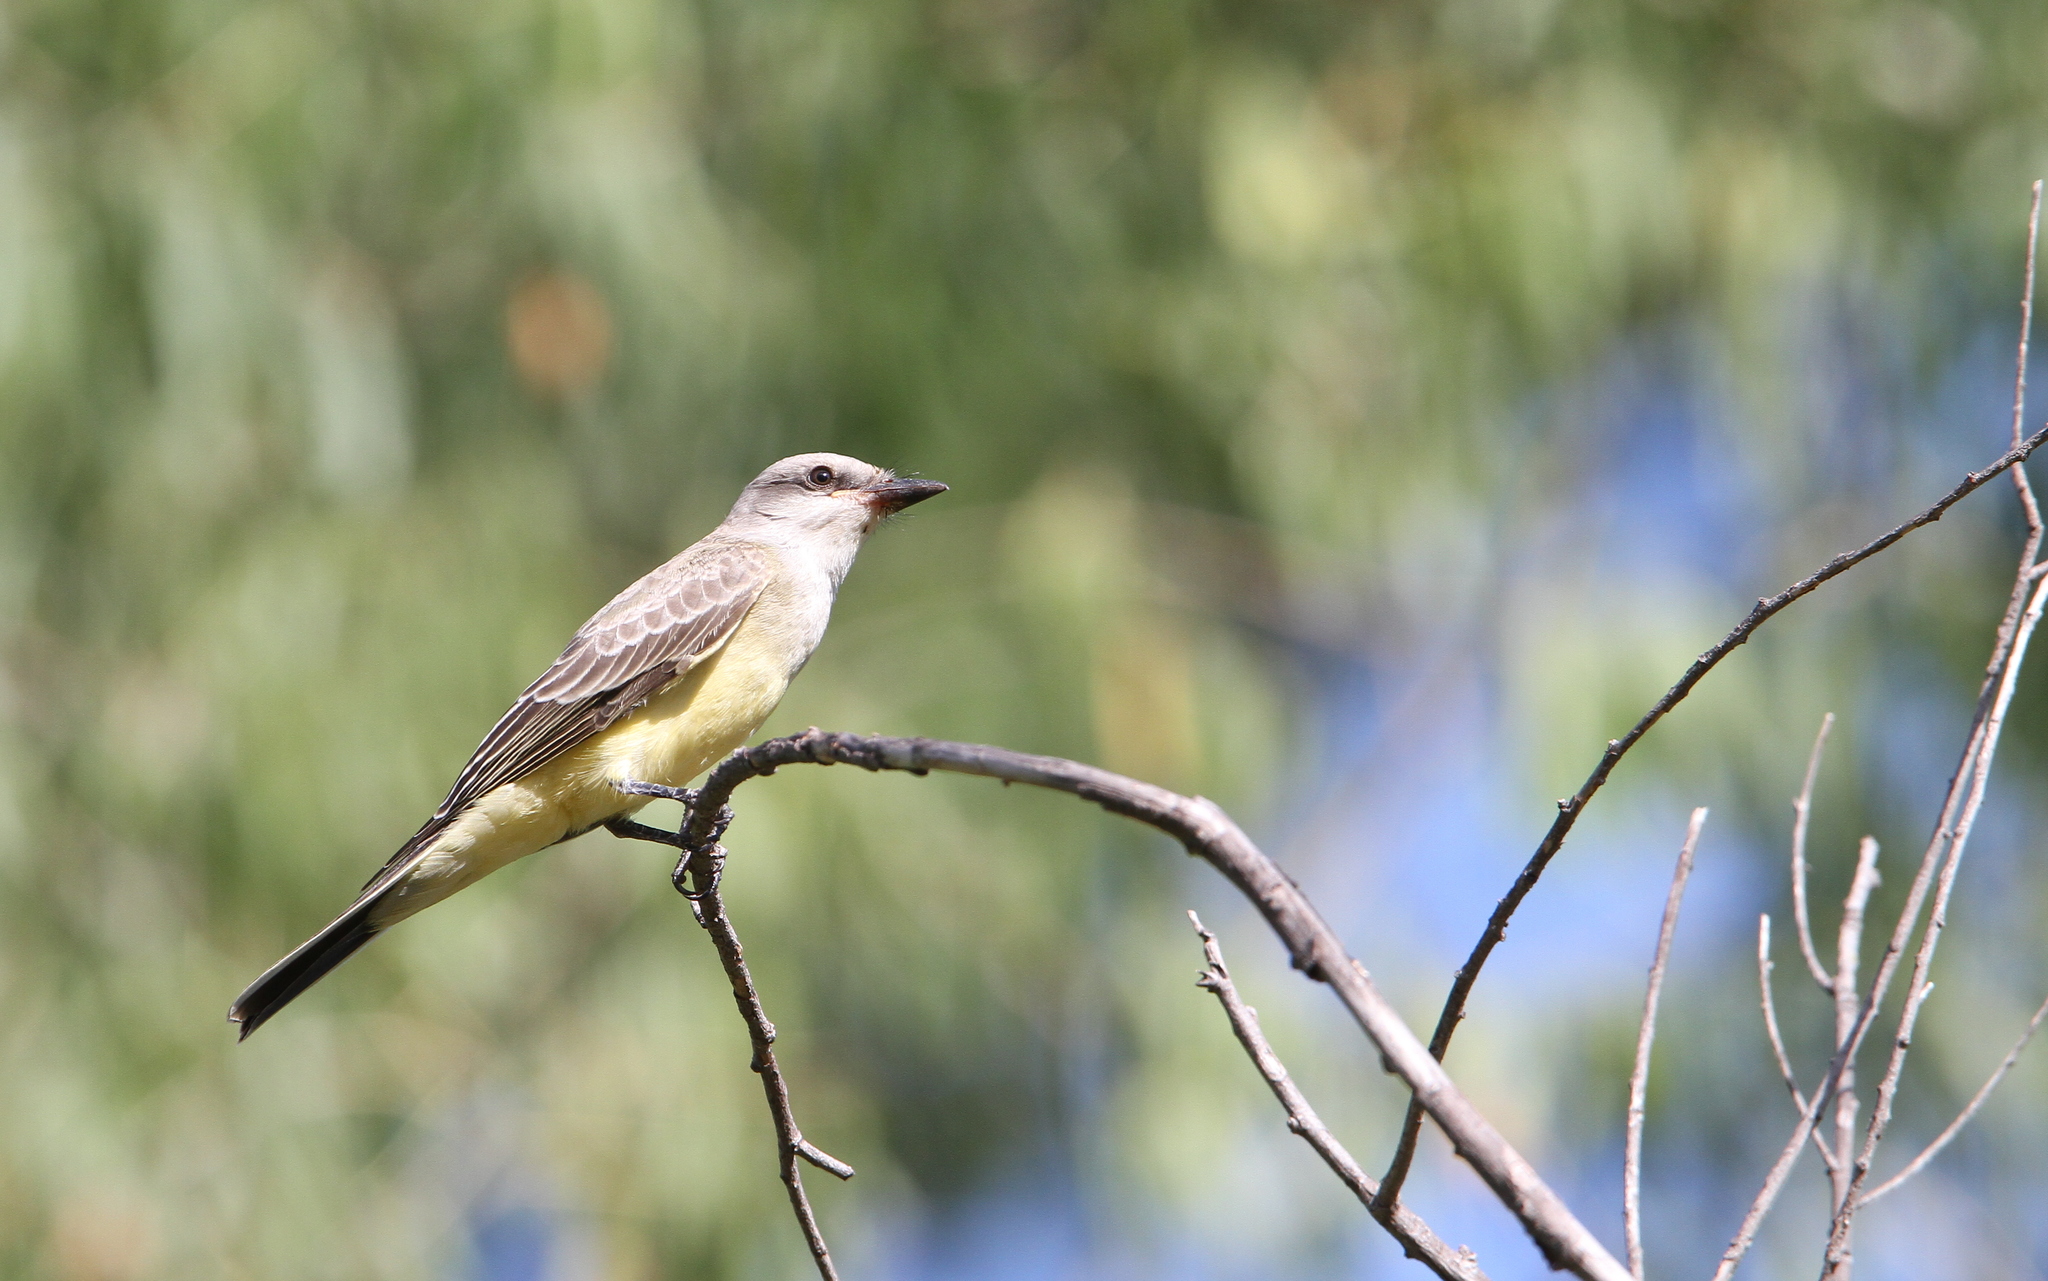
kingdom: Animalia
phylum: Chordata
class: Aves
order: Passeriformes
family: Tyrannidae
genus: Tyrannus
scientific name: Tyrannus verticalis
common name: Western kingbird
